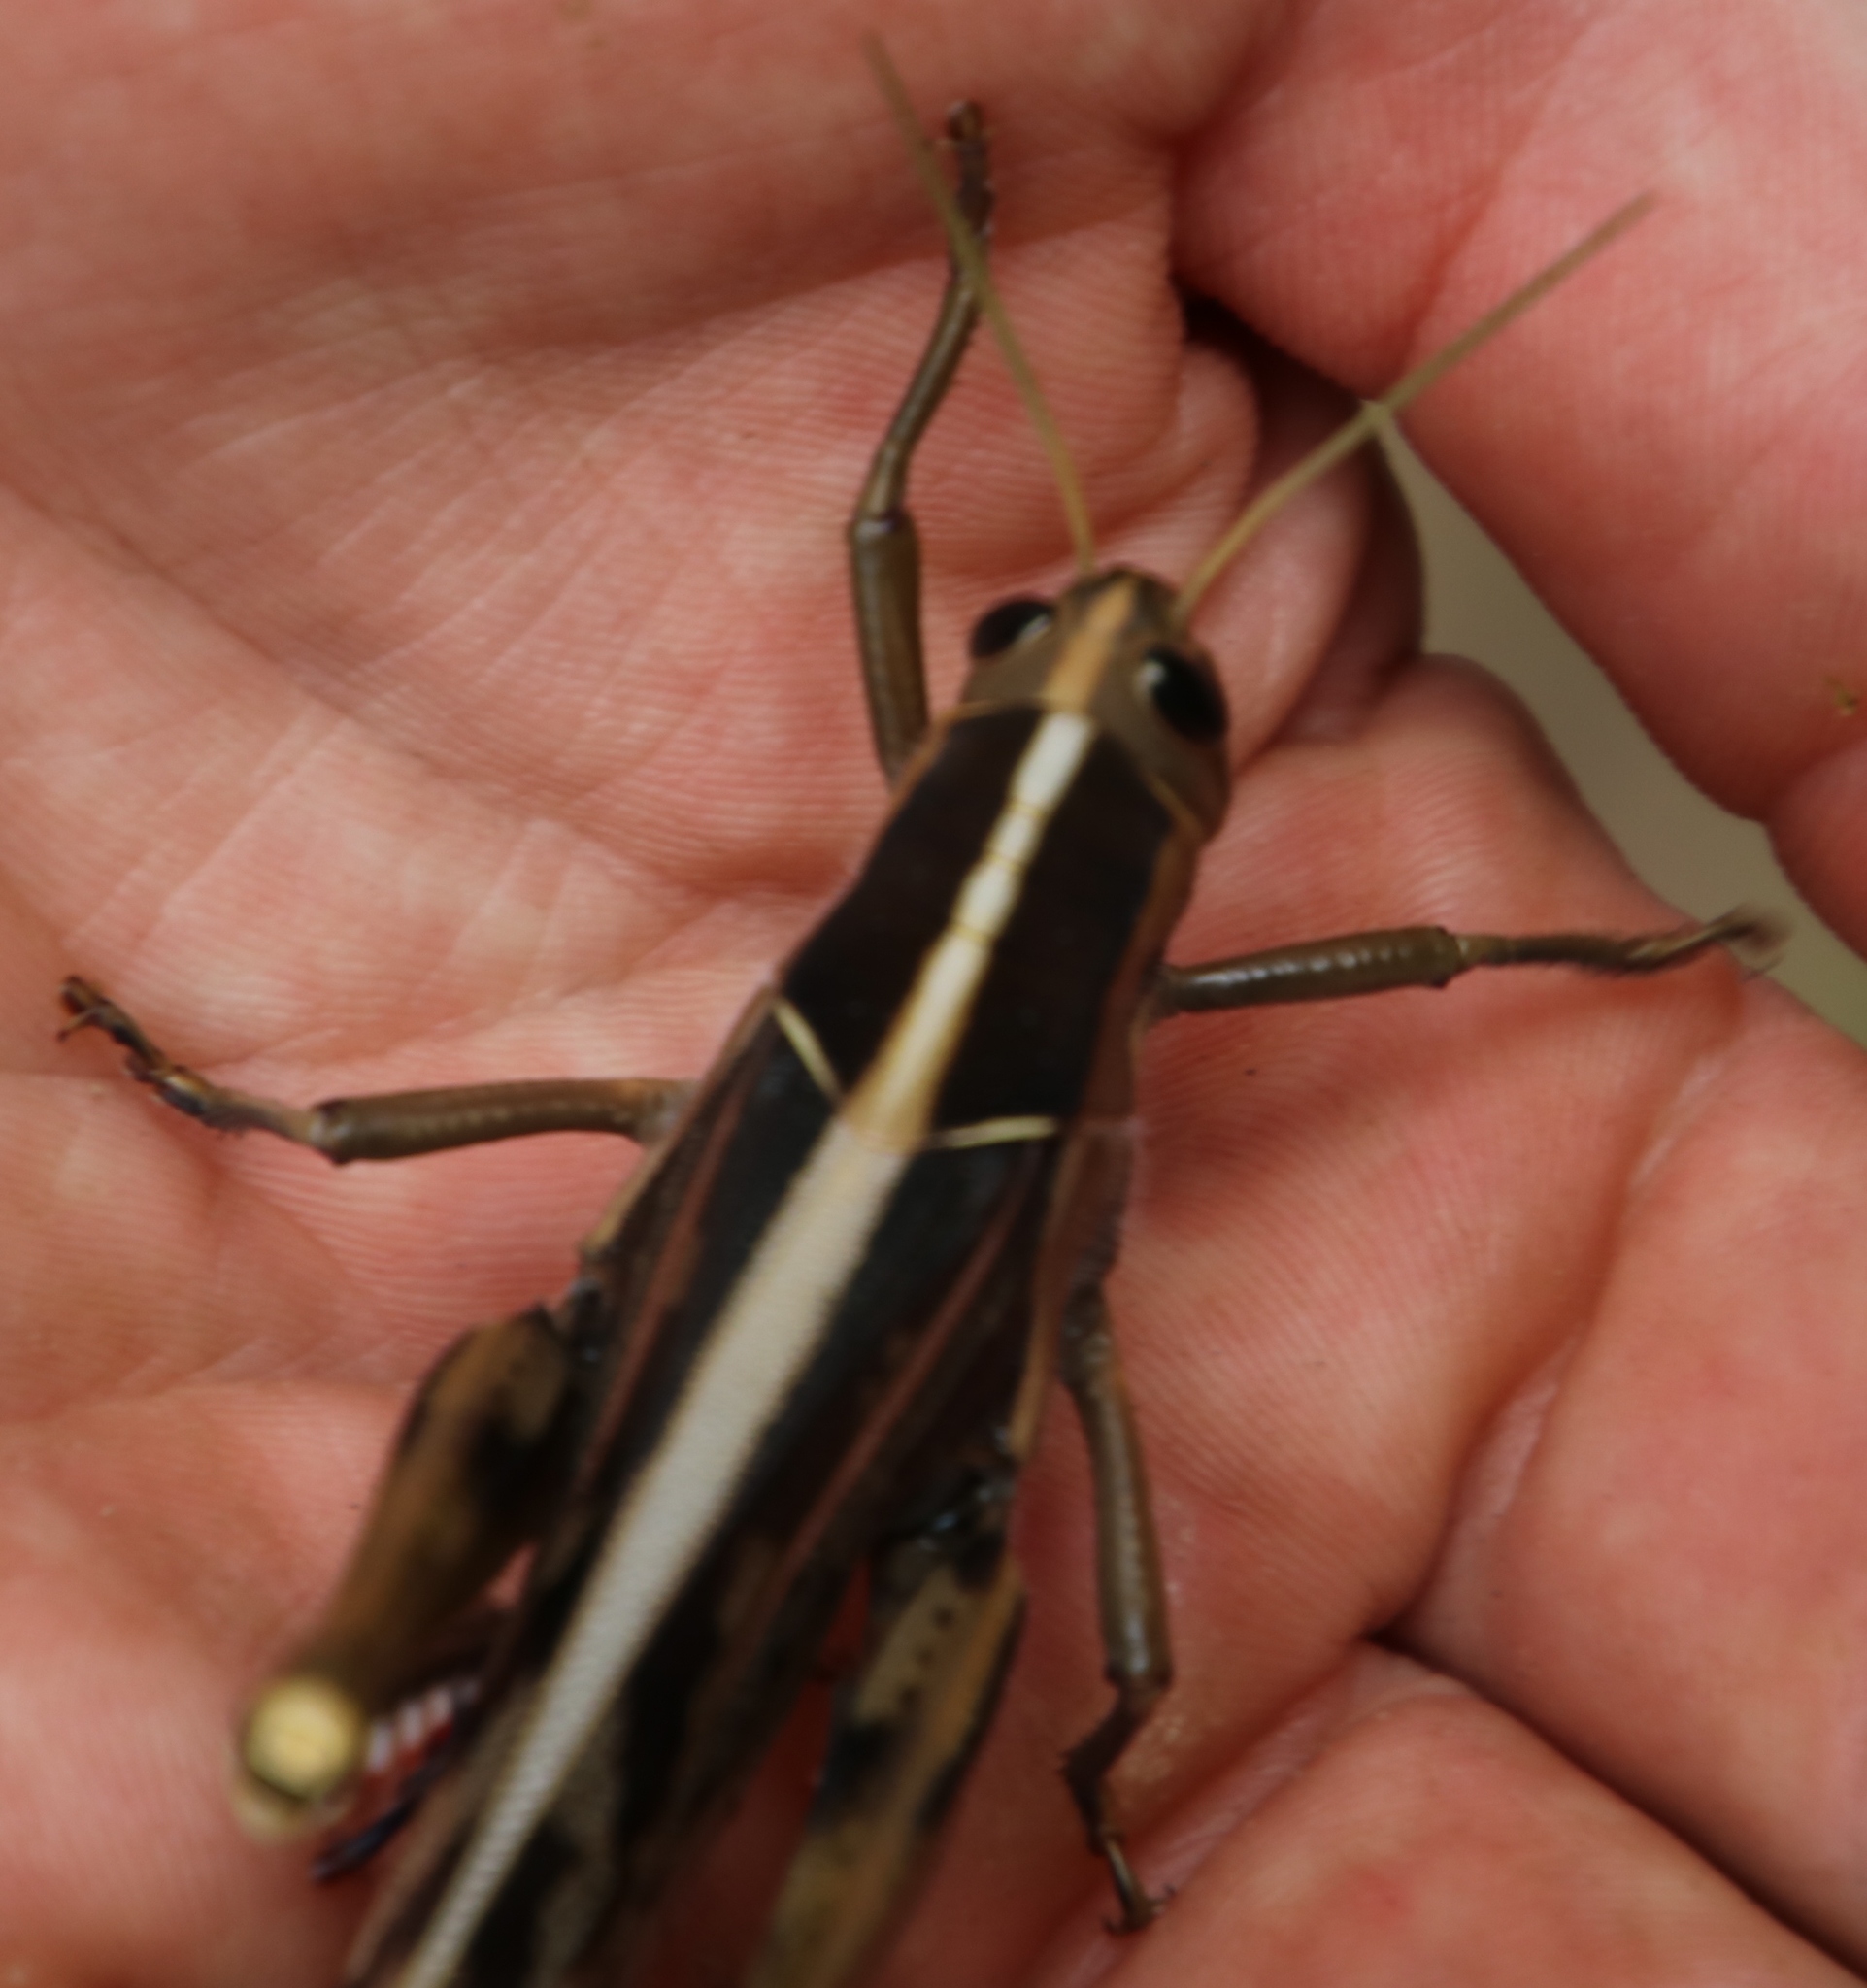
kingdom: Animalia
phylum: Arthropoda
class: Insecta
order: Orthoptera
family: Acrididae
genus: Acanthacris
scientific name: Acanthacris ruficornis
